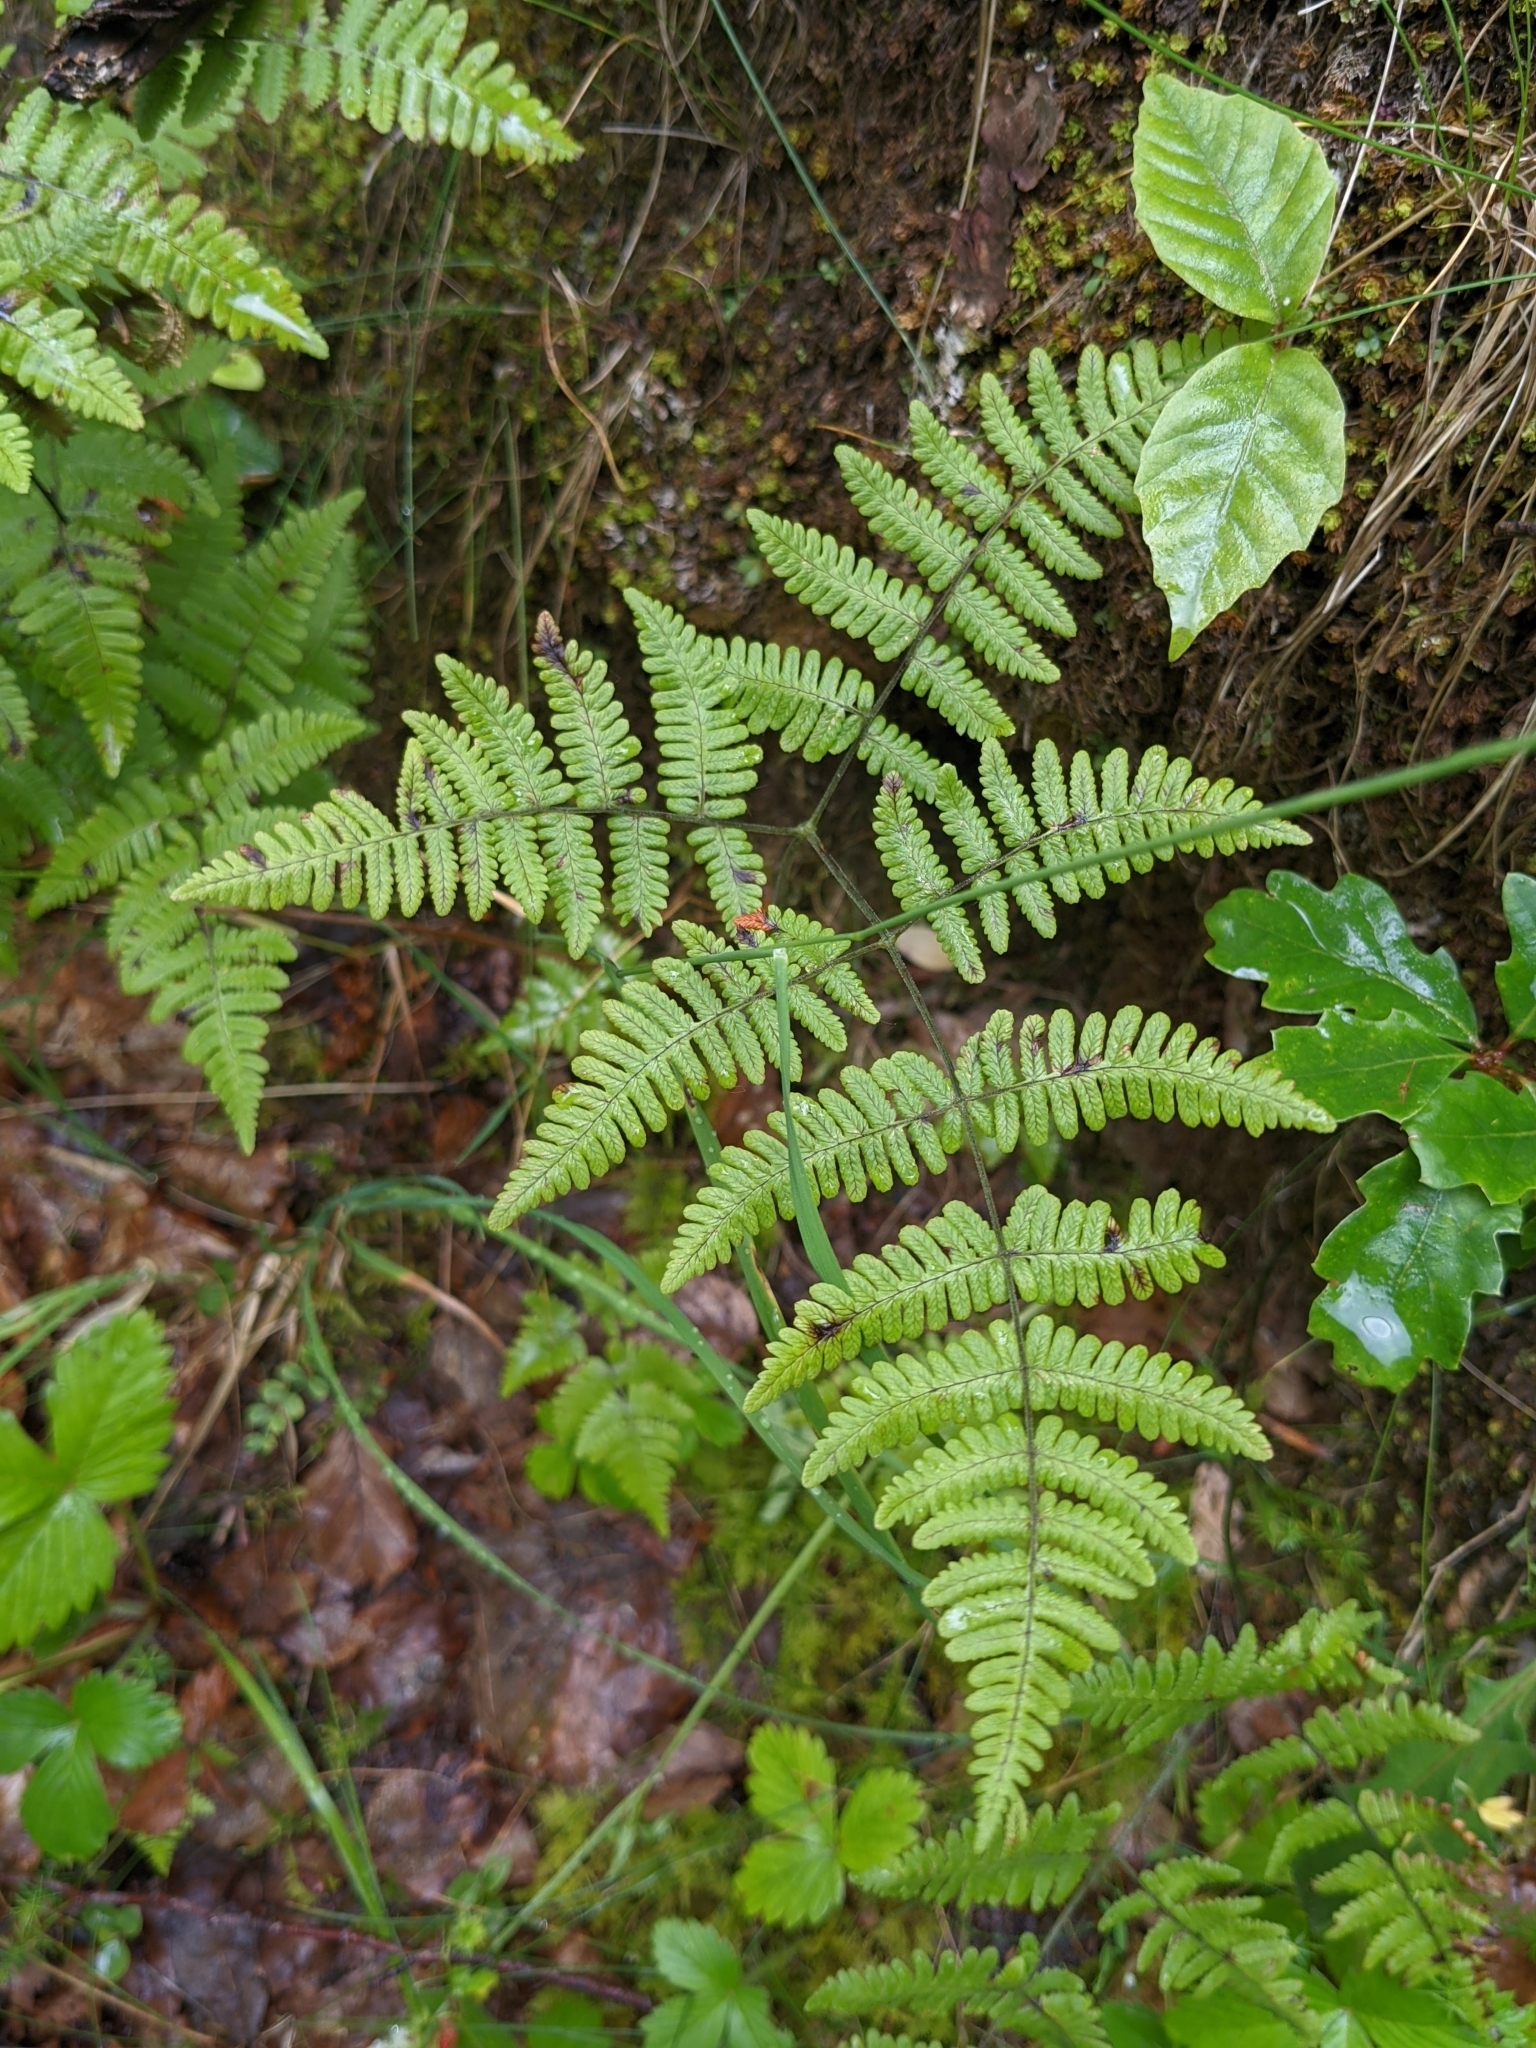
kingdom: Plantae
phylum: Tracheophyta
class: Polypodiopsida
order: Polypodiales
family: Cystopteridaceae
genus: Gymnocarpium
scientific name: Gymnocarpium robertianum
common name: Limestone fern
